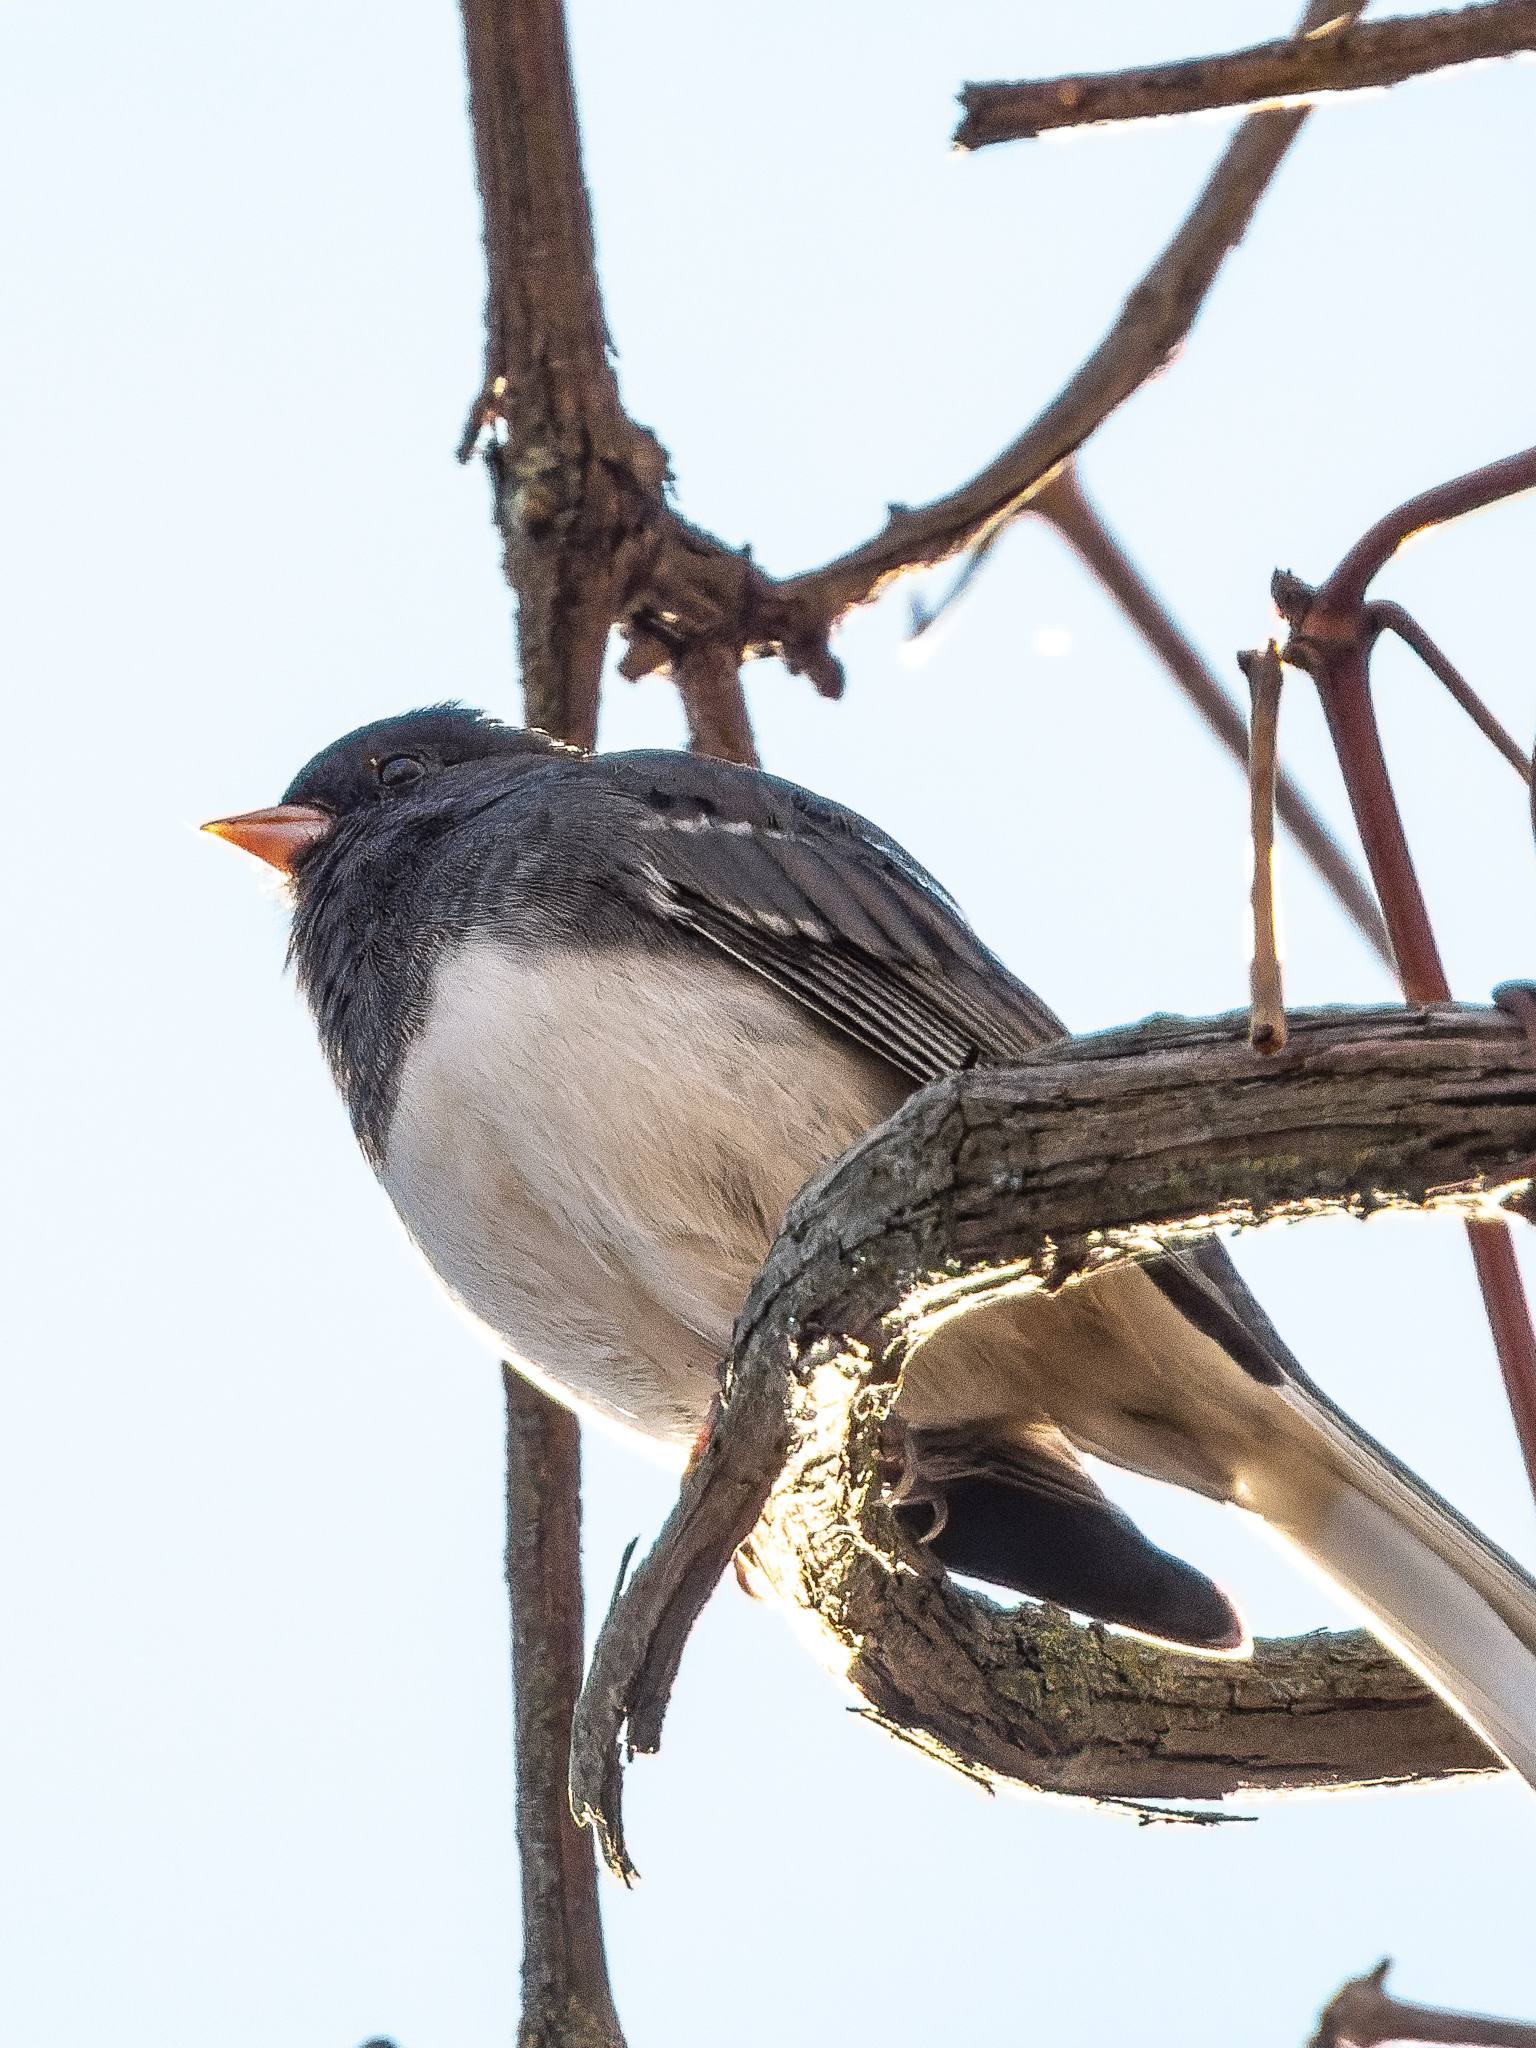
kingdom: Animalia
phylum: Chordata
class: Aves
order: Passeriformes
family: Passerellidae
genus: Junco
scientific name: Junco hyemalis
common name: Dark-eyed junco
